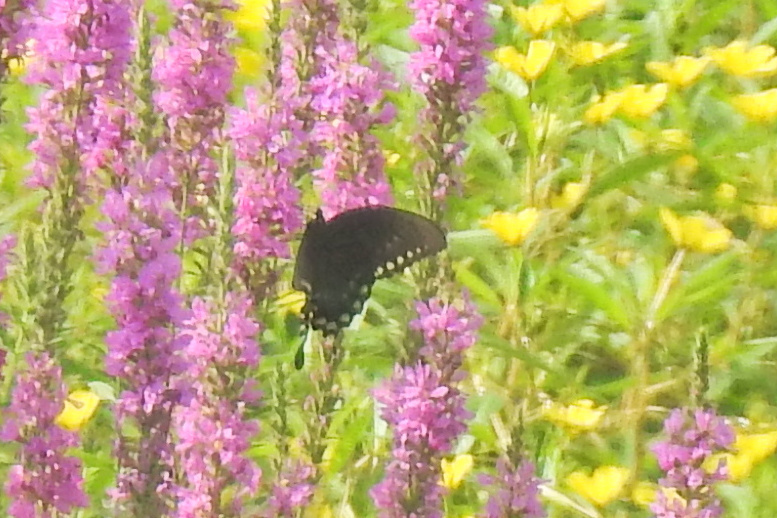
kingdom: Animalia
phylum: Arthropoda
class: Insecta
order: Lepidoptera
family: Papilionidae
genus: Papilio
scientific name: Papilio troilus
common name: Spicebush swallowtail
